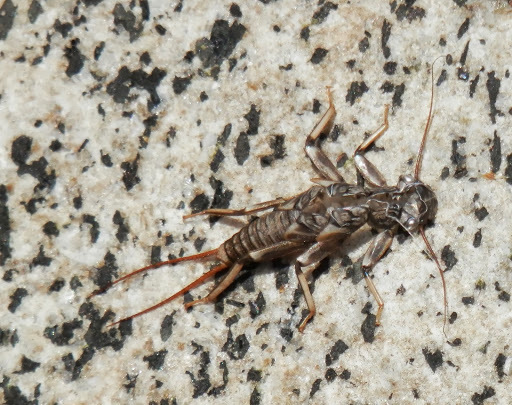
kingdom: Animalia
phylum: Arthropoda
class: Insecta
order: Plecoptera
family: Perlidae
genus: Calineuria
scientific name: Calineuria californica
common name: Western stone
